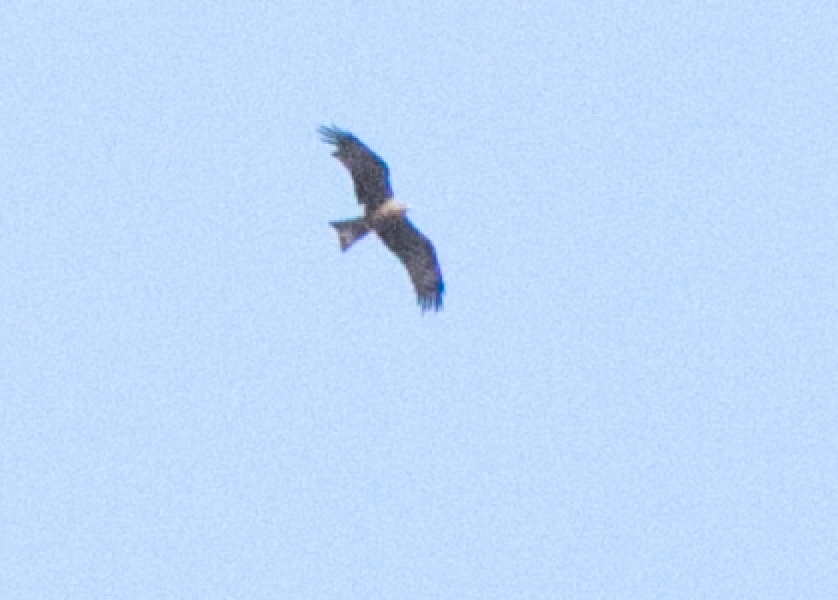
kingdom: Animalia
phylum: Chordata
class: Aves
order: Accipitriformes
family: Accipitridae
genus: Milvus
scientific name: Milvus migrans
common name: Black kite
